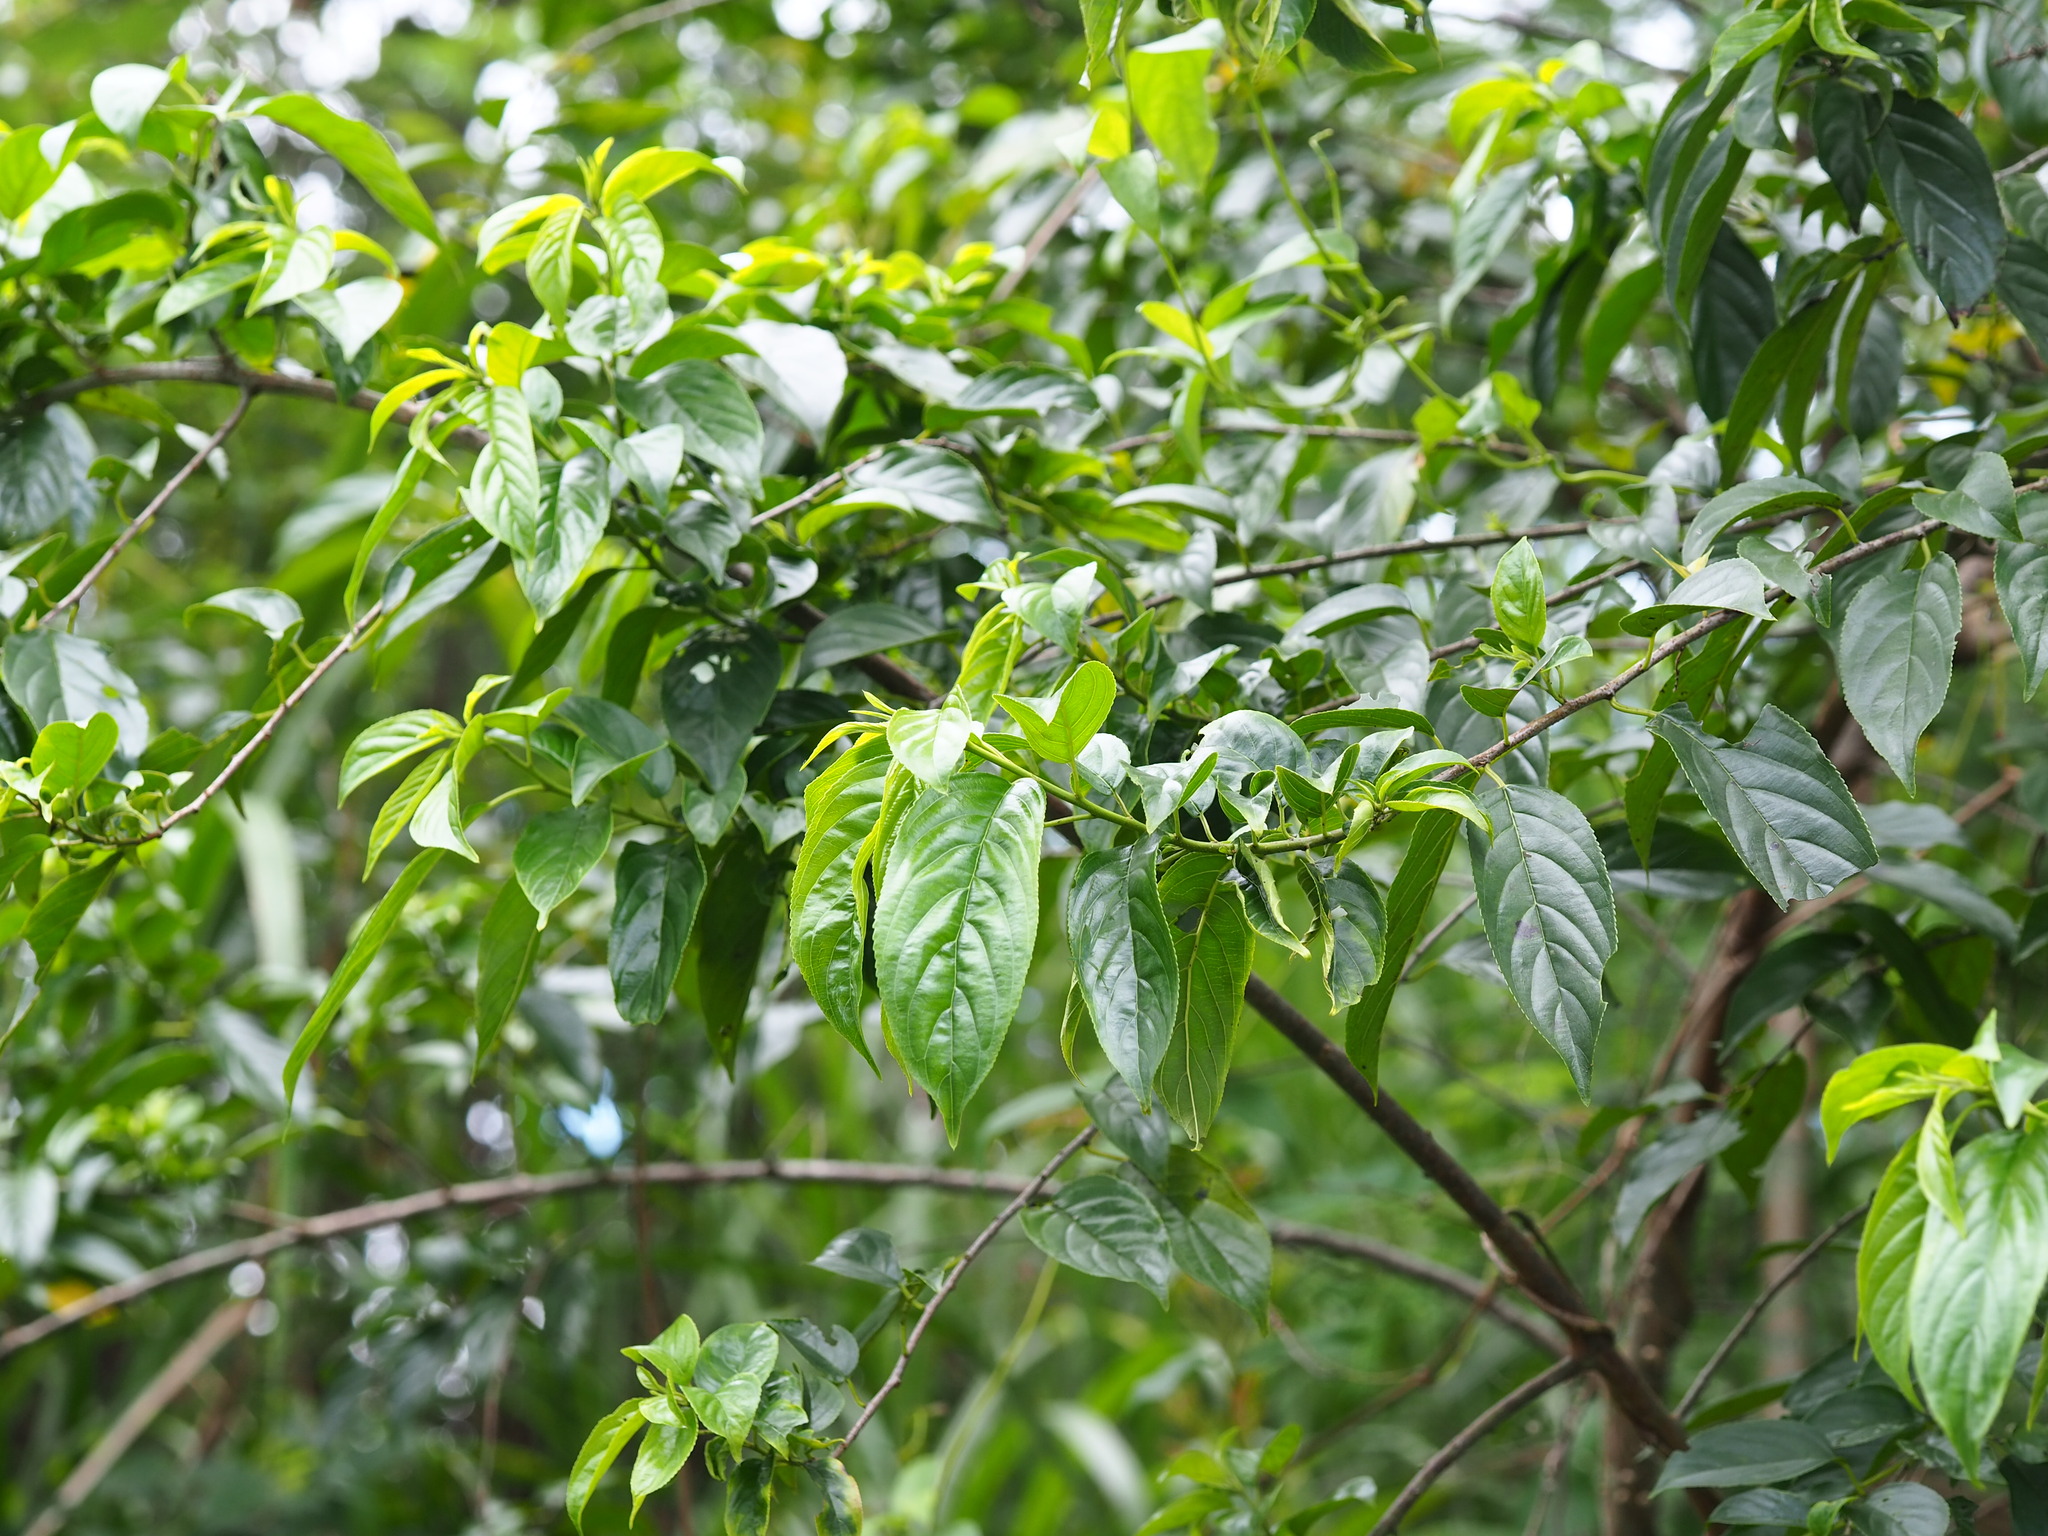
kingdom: Plantae
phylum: Tracheophyta
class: Magnoliopsida
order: Rosales
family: Rhamnaceae
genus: Rhamnus
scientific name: Rhamnus formosana
